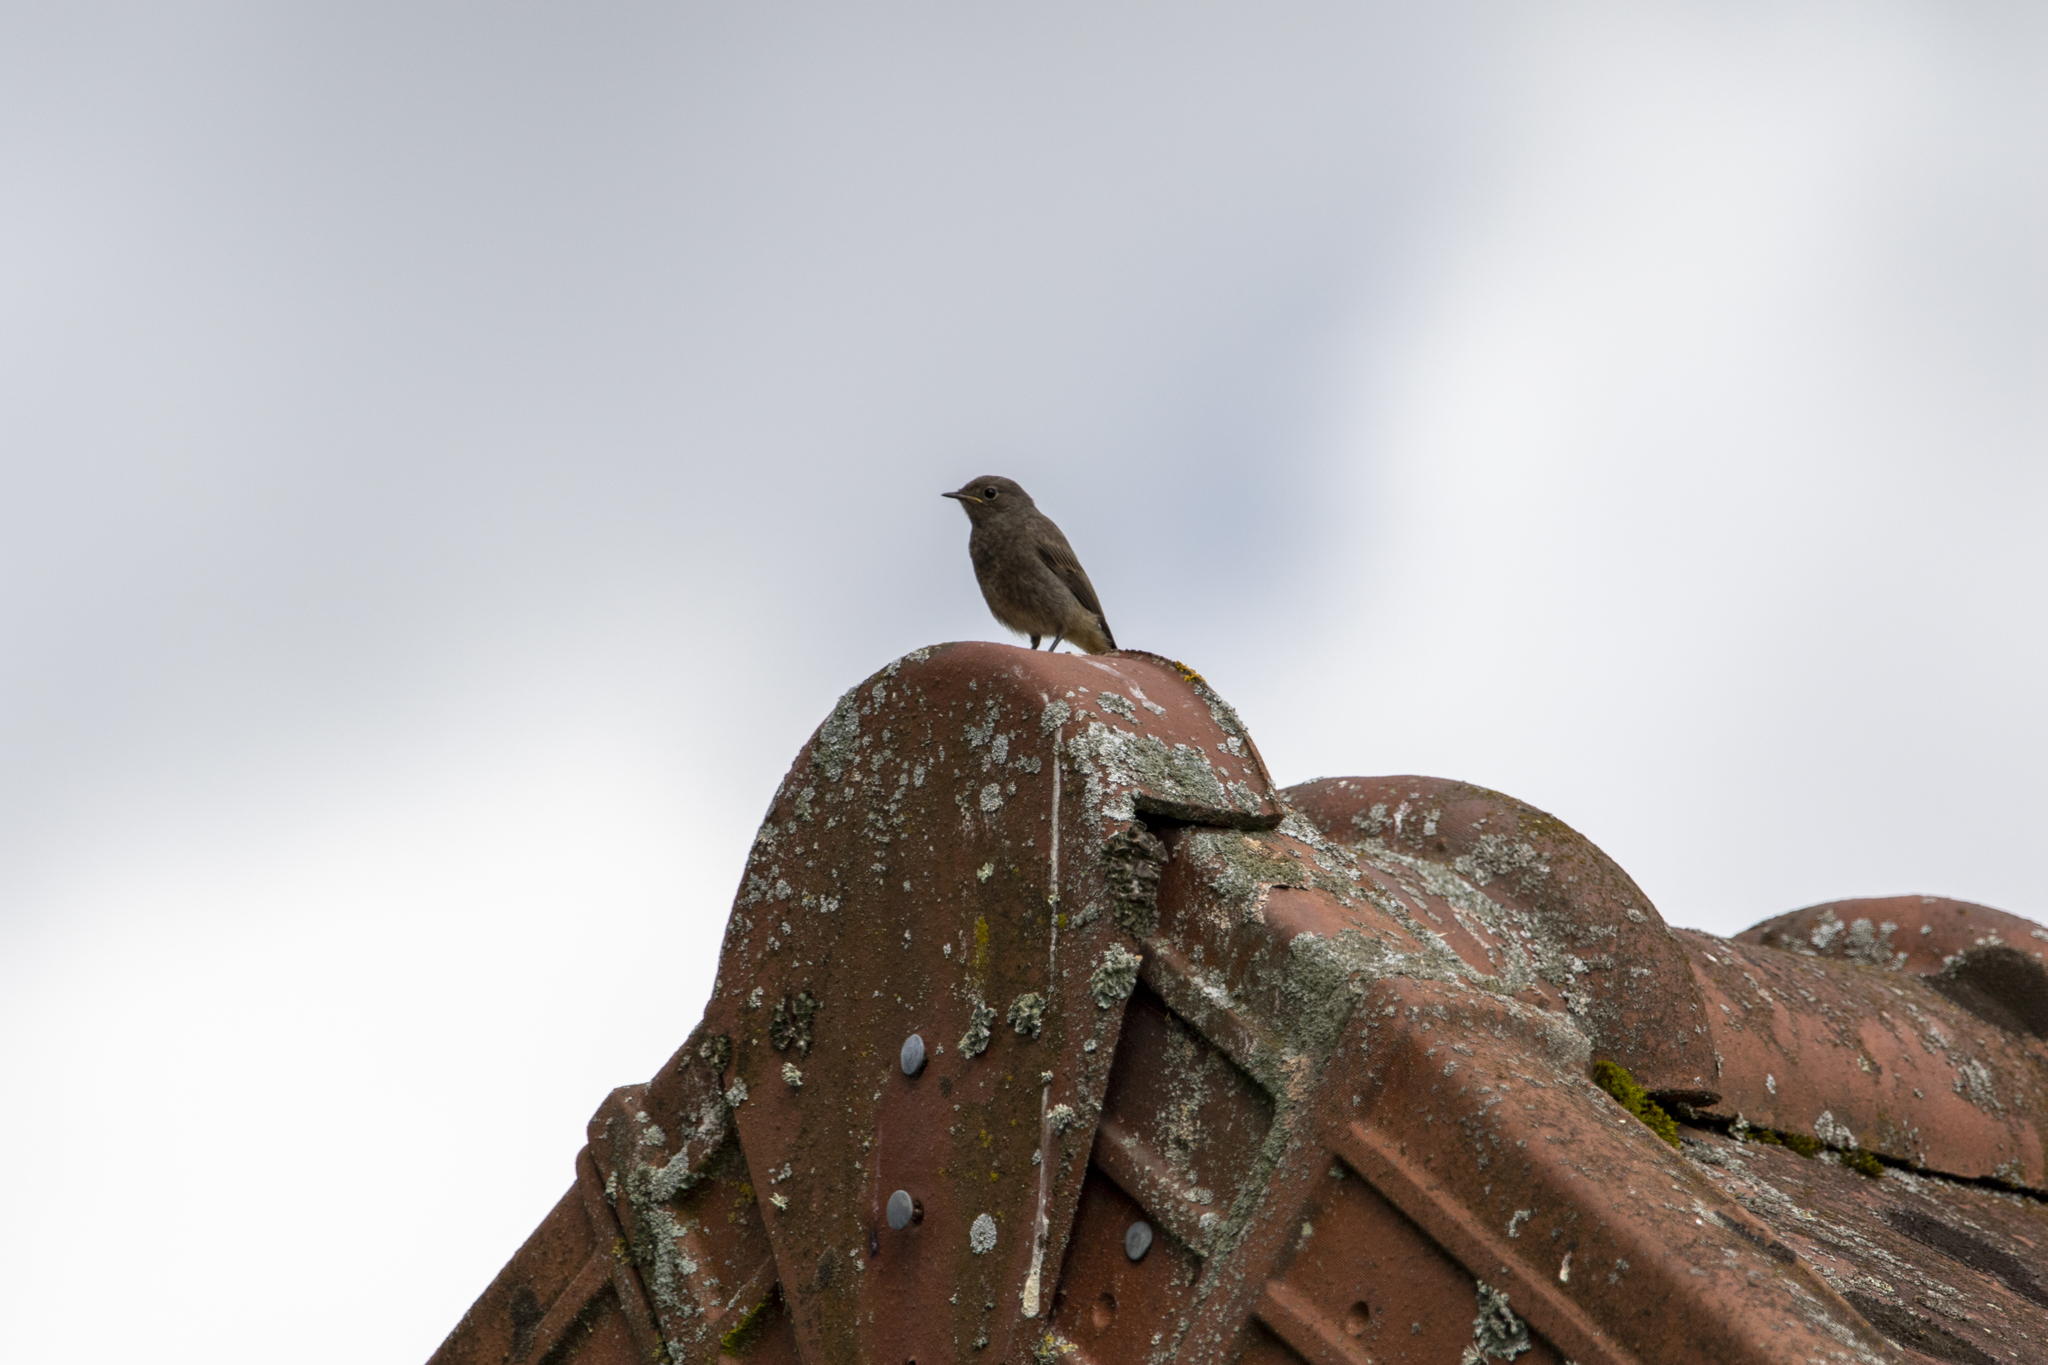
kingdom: Animalia
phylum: Chordata
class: Aves
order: Passeriformes
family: Muscicapidae
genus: Phoenicurus
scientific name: Phoenicurus ochruros
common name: Black redstart
